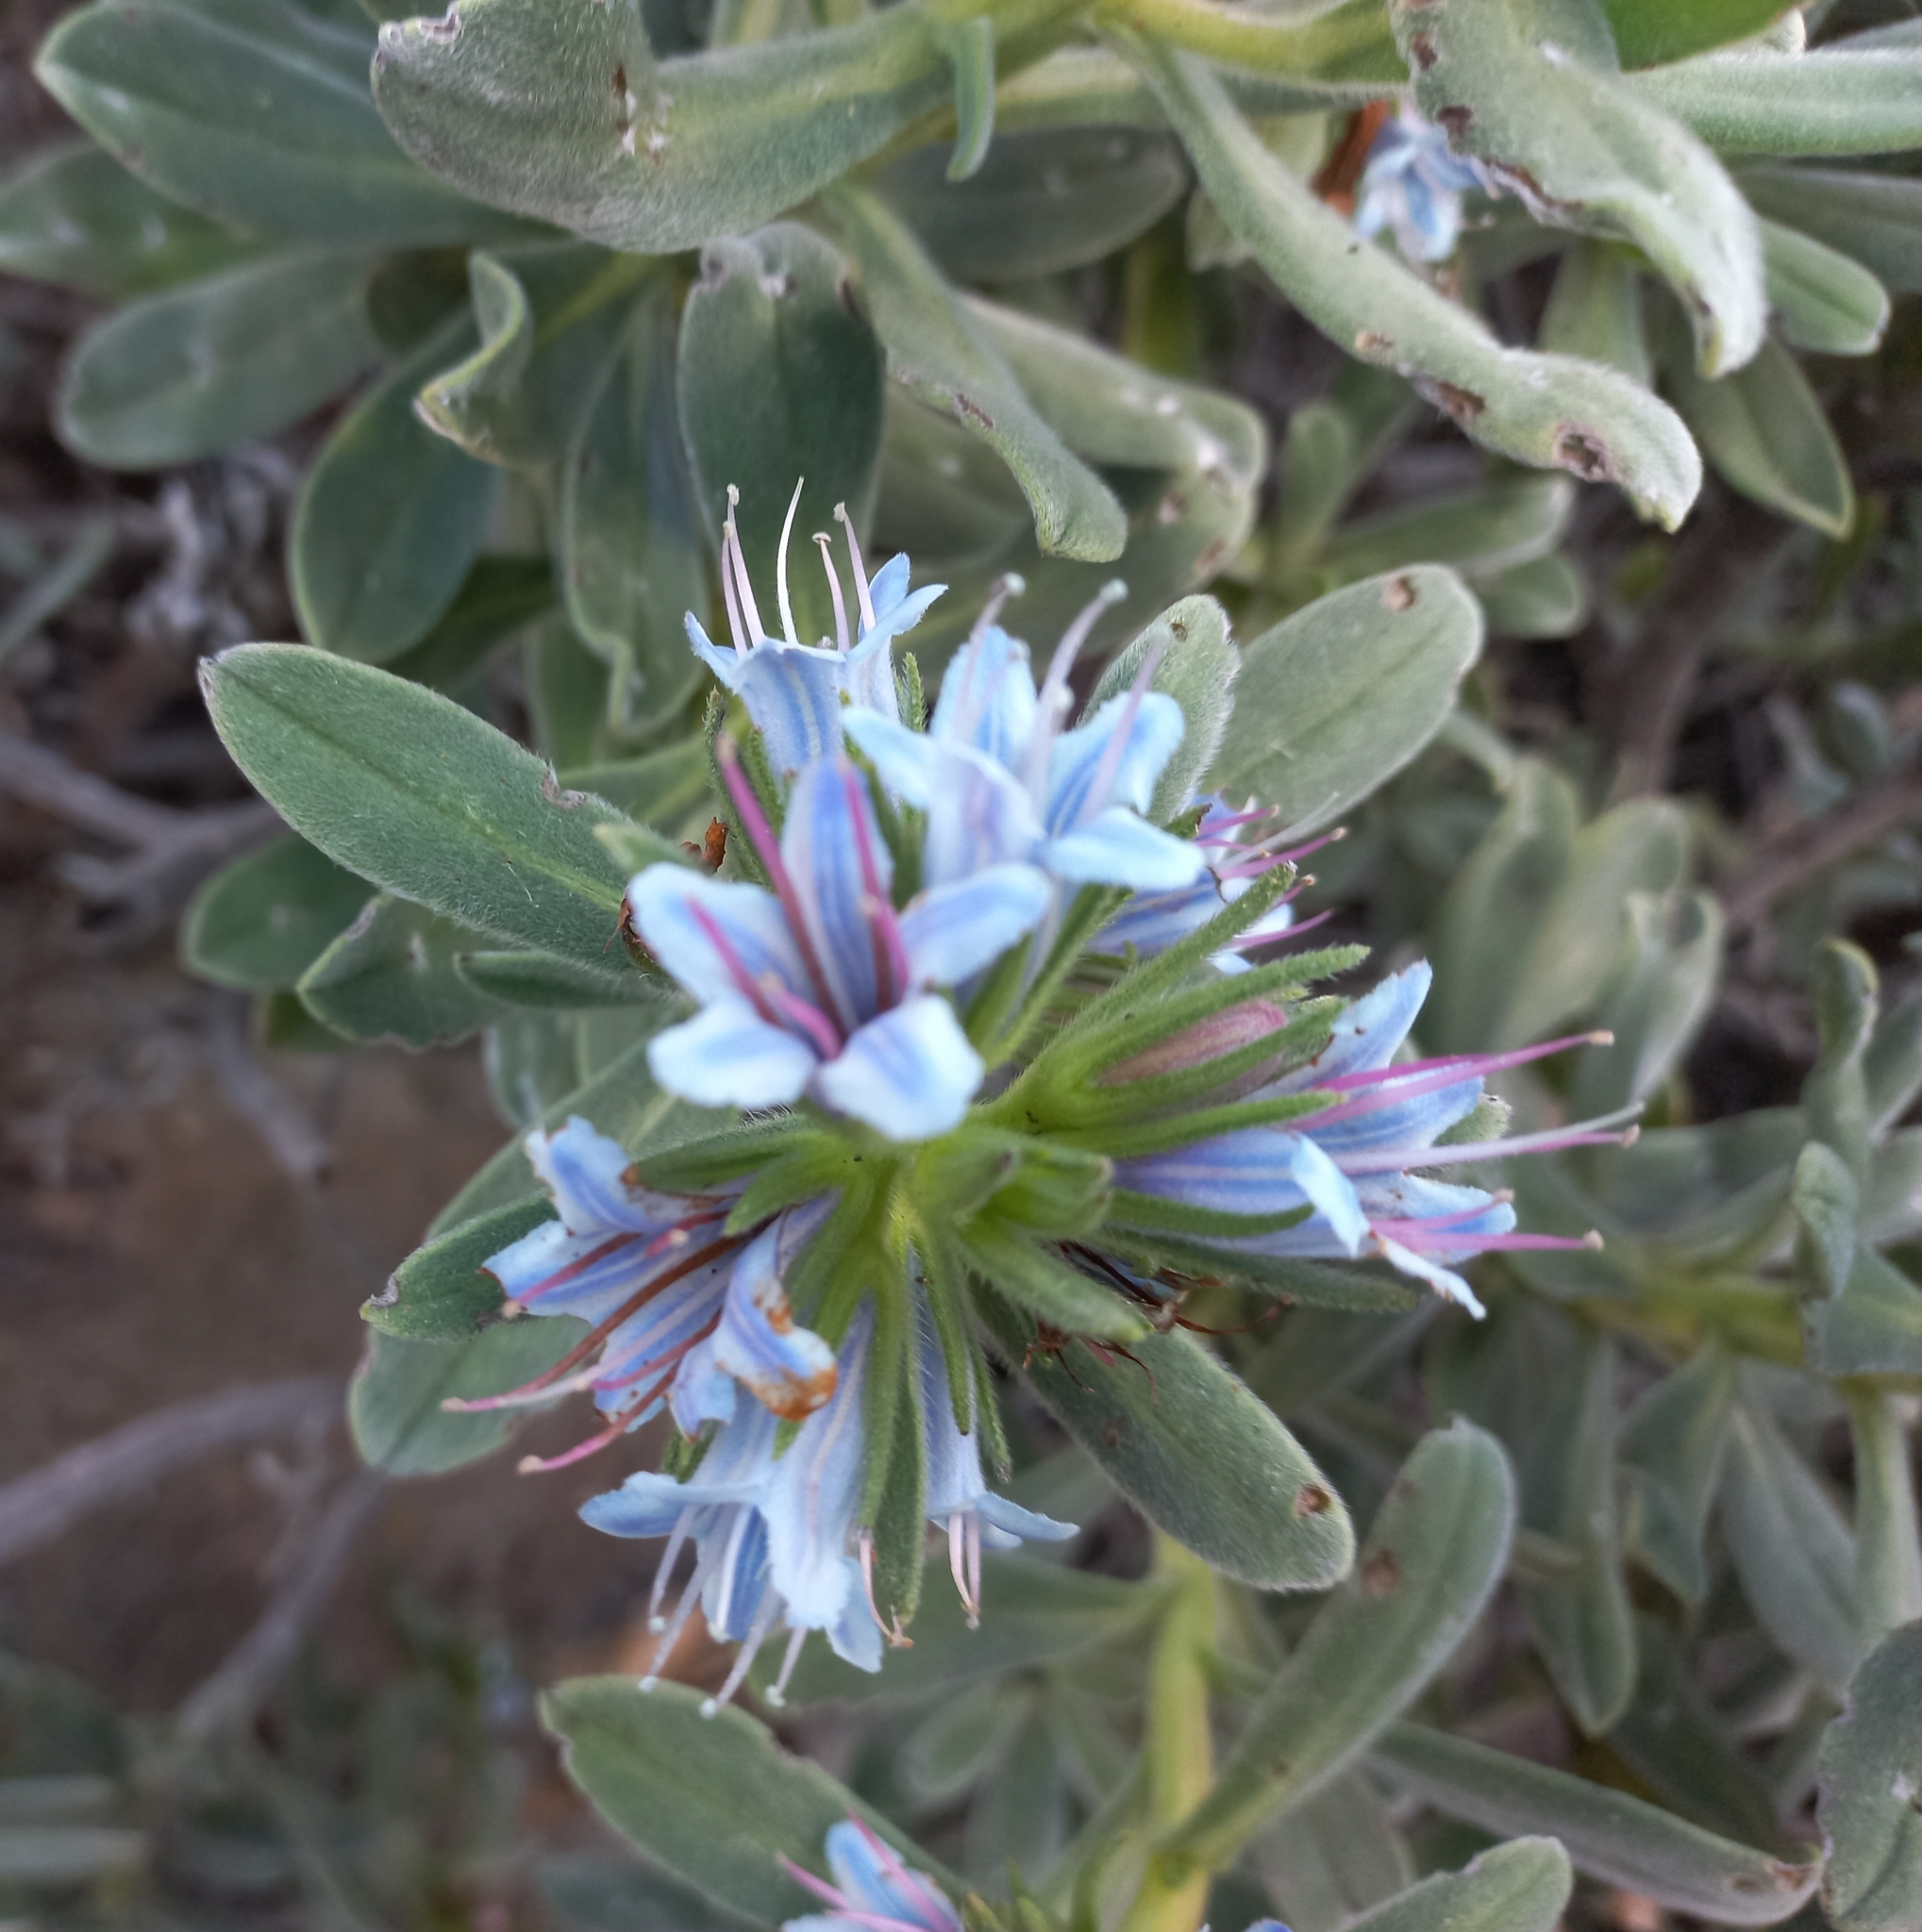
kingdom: Plantae
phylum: Tracheophyta
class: Magnoliopsida
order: Boraginales
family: Boraginaceae
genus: Lobostemon
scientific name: Lobostemon montanus
